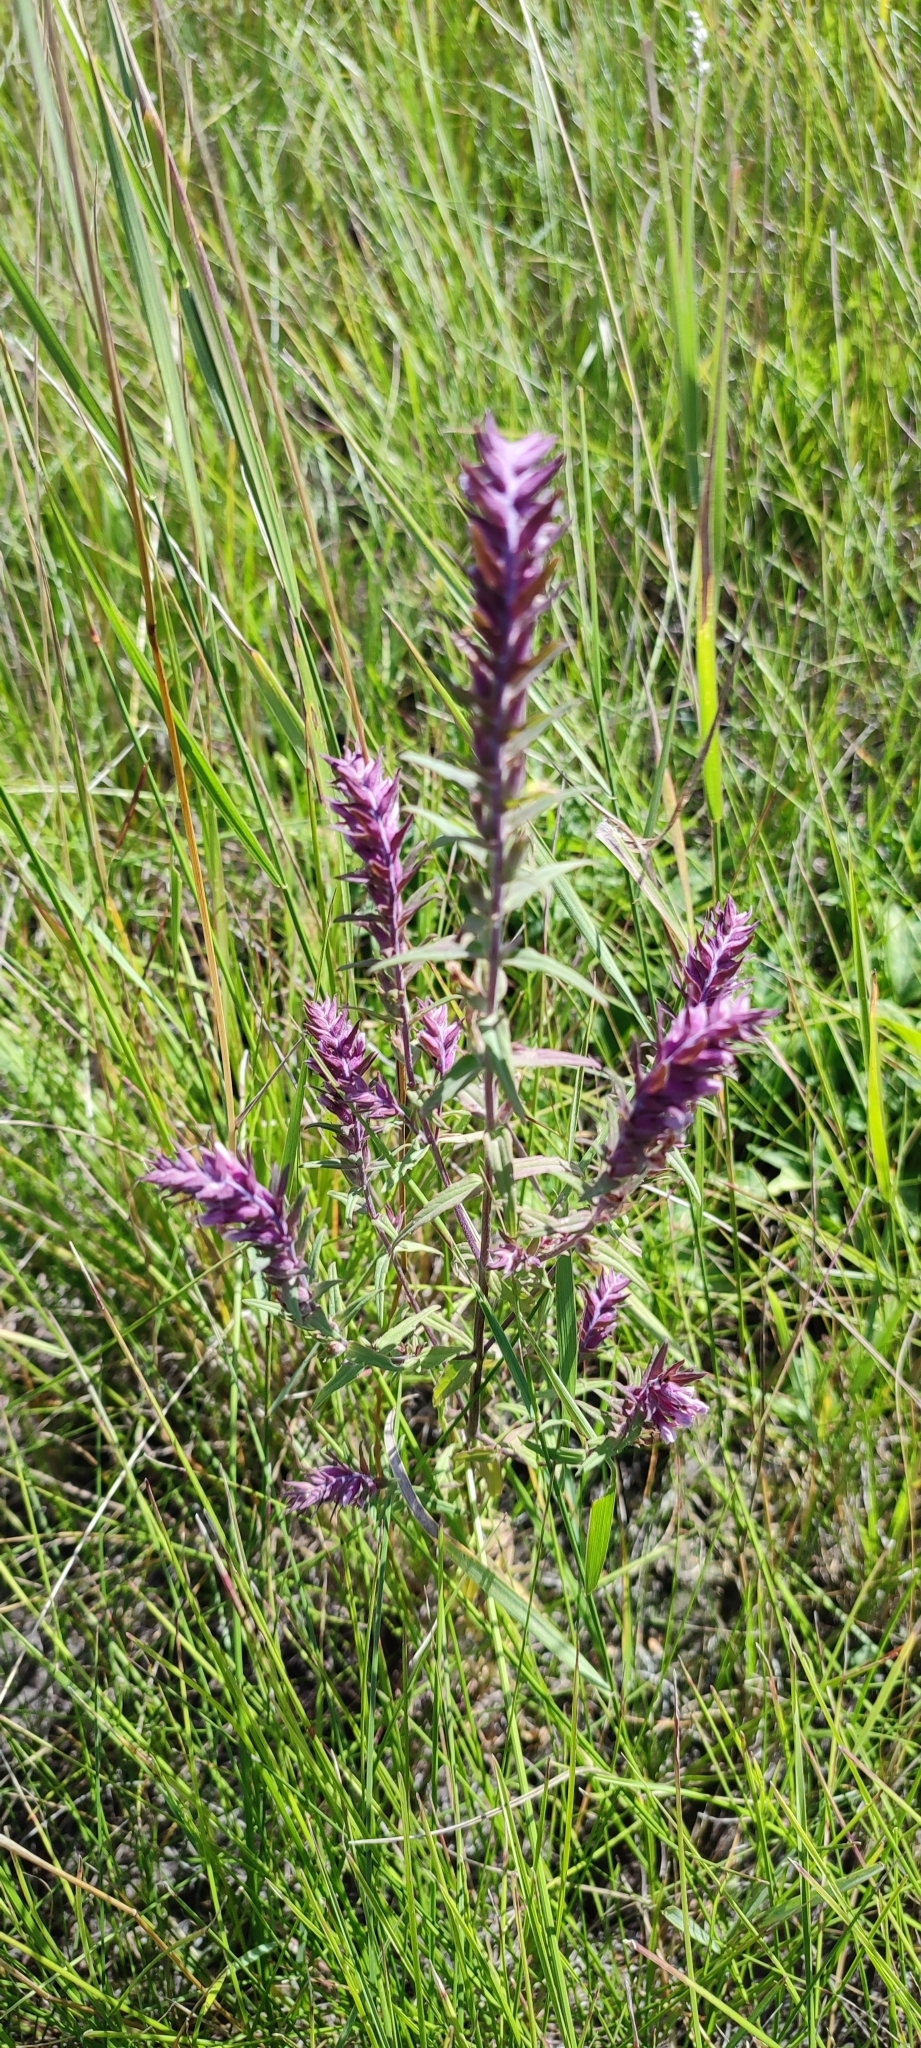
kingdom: Plantae
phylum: Tracheophyta
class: Magnoliopsida
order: Lamiales
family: Orobanchaceae
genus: Odontites
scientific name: Odontites vulgaris
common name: Broomrape
